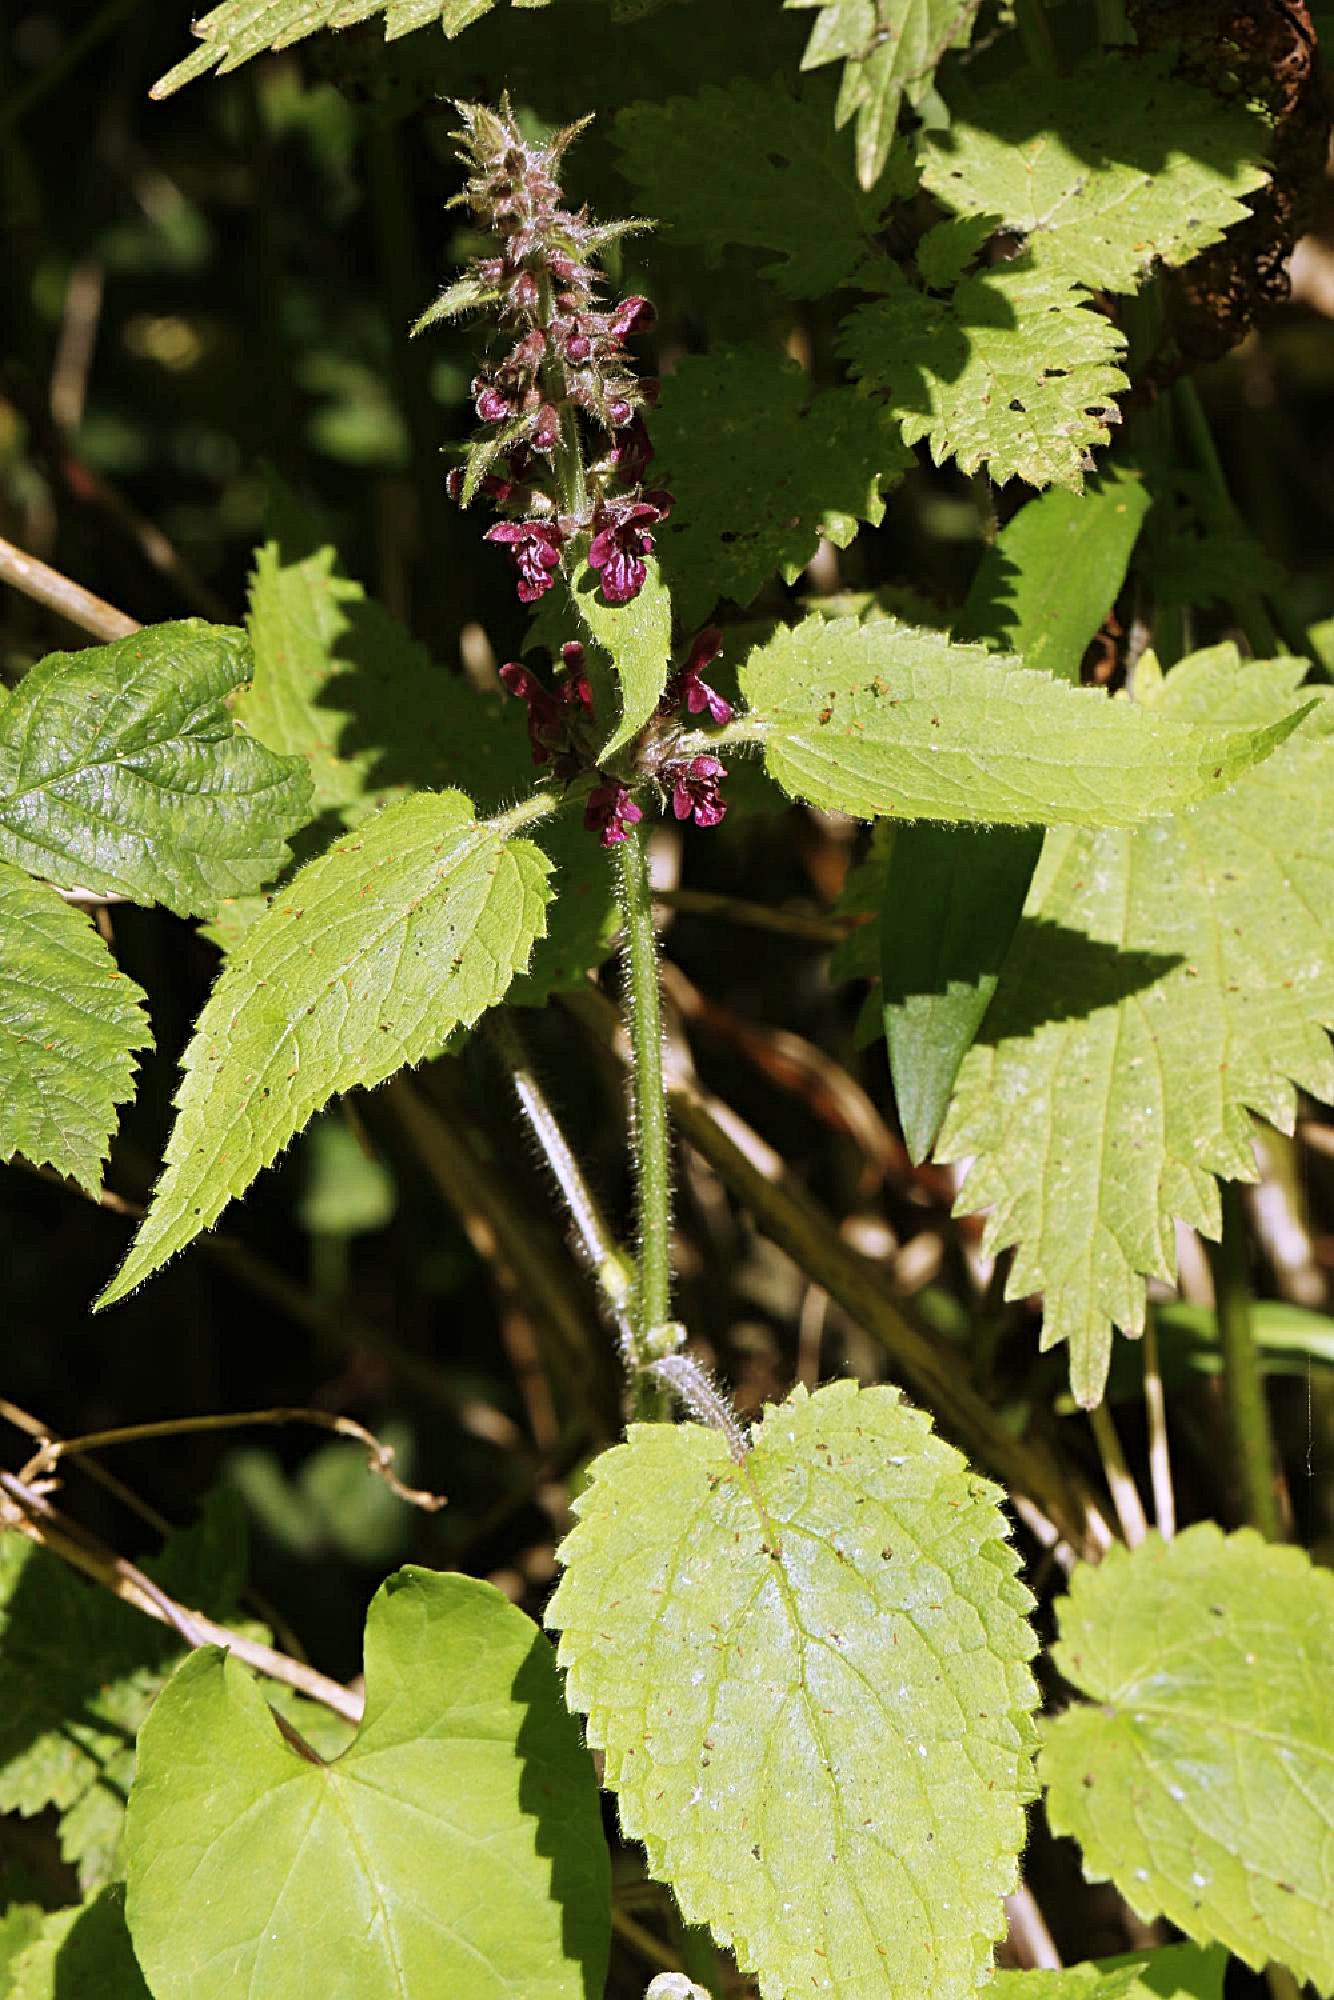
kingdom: Plantae
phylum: Tracheophyta
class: Magnoliopsida
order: Lamiales
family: Lamiaceae
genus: Stachys
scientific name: Stachys sylvatica
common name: Hedge woundwort
